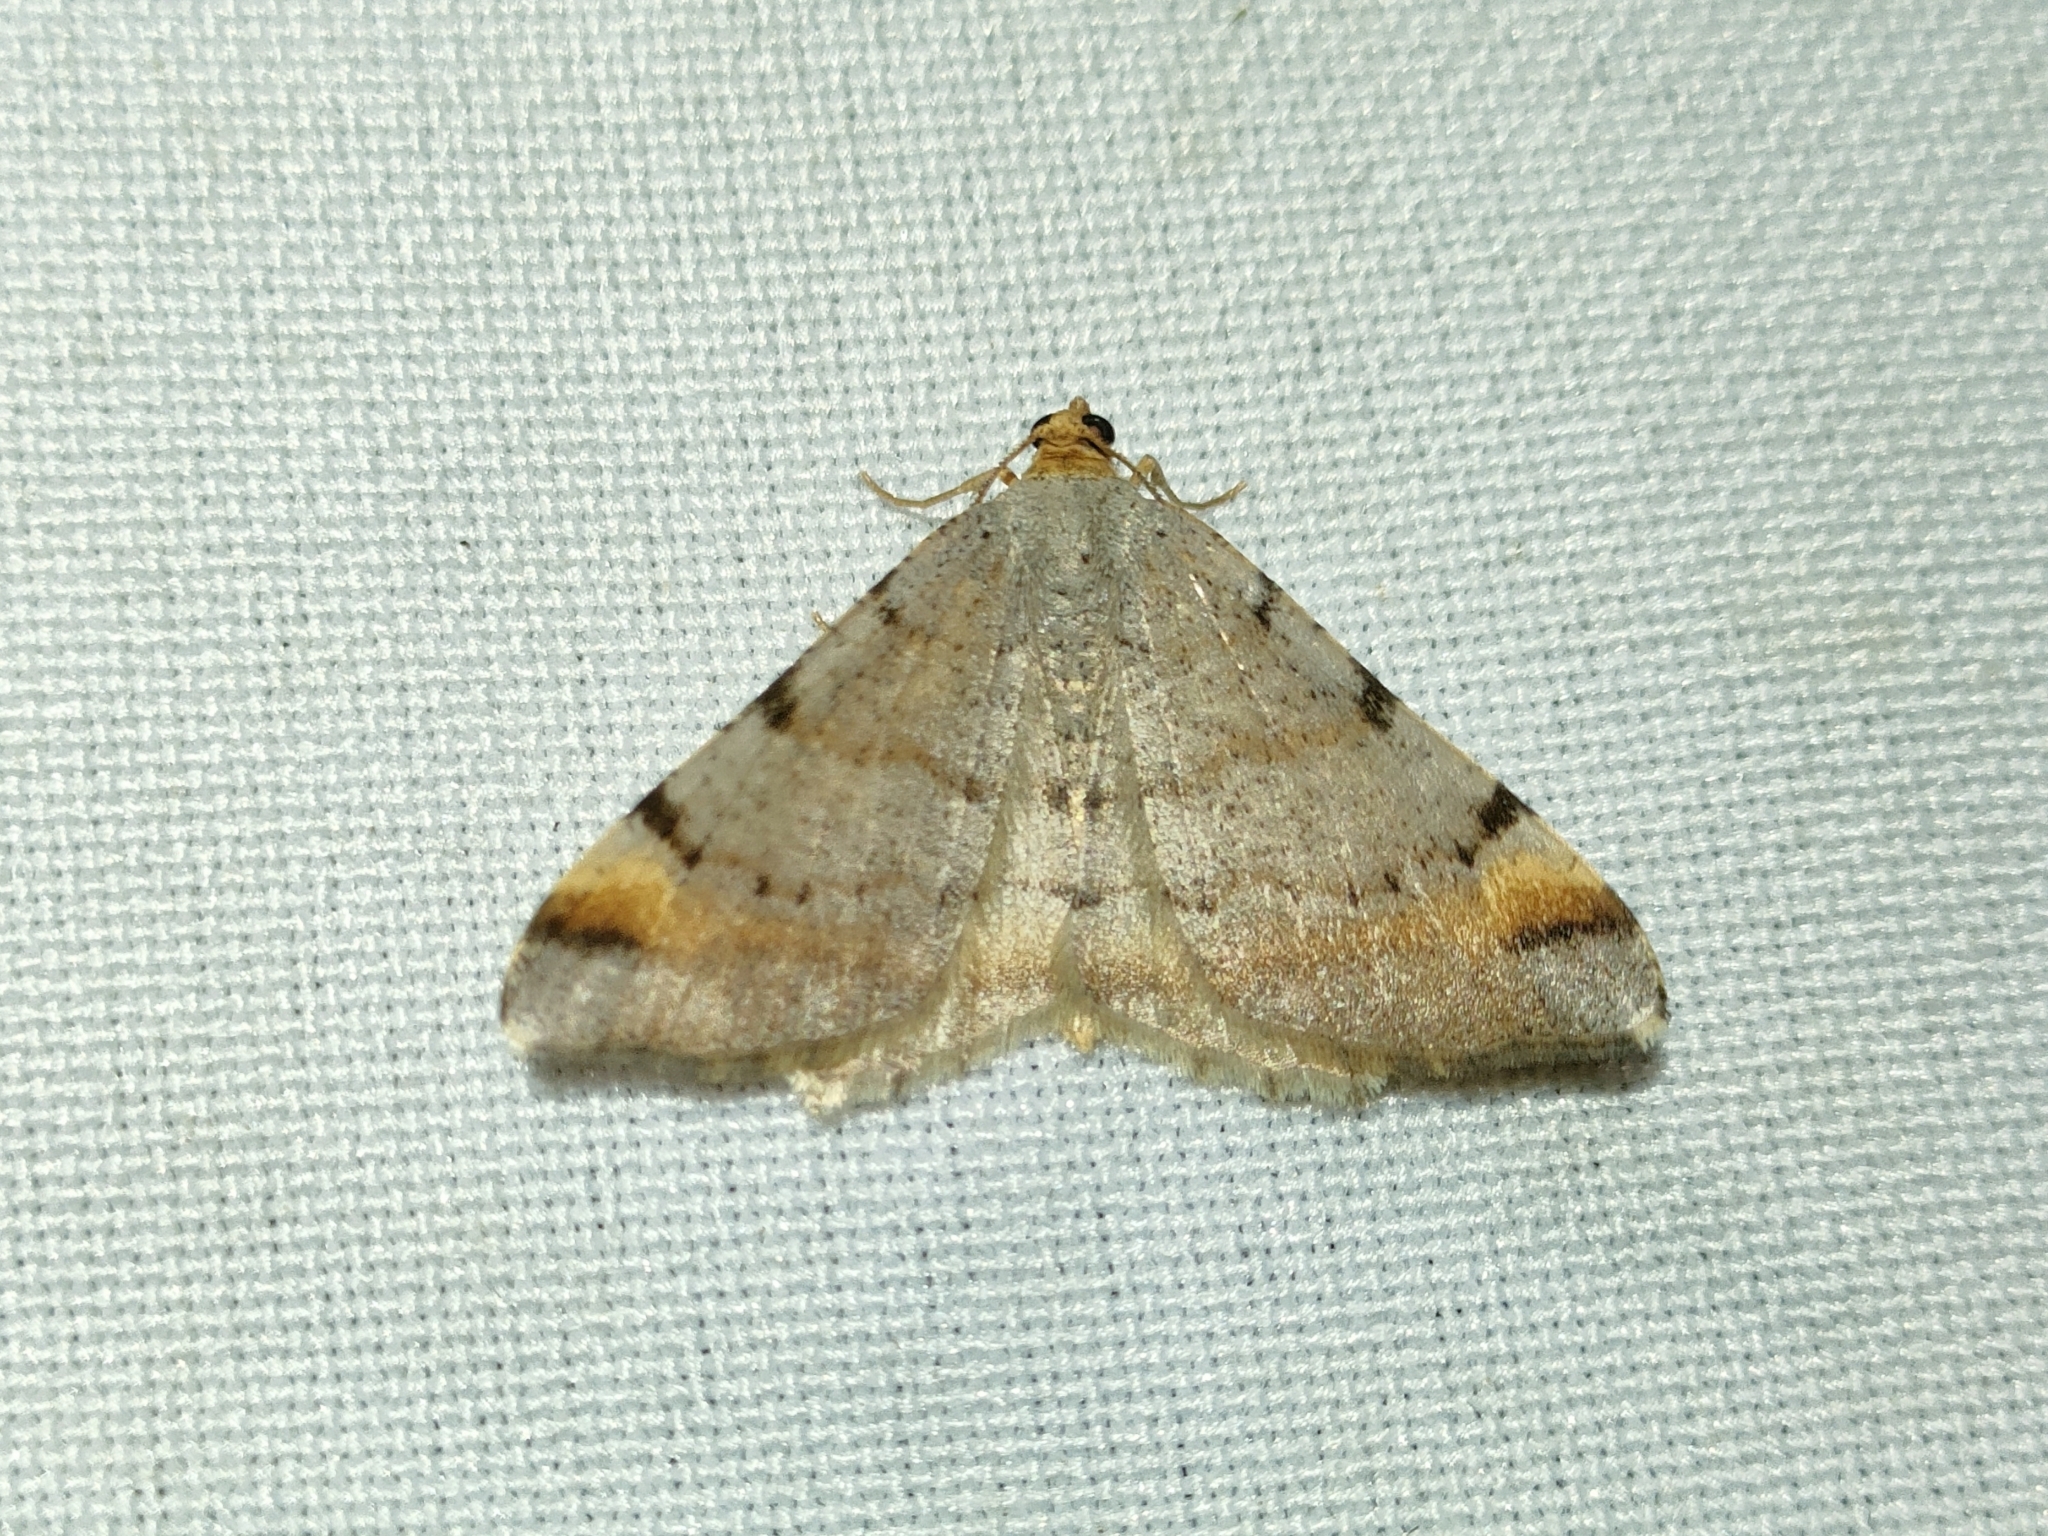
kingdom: Animalia
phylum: Arthropoda
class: Insecta
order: Lepidoptera
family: Geometridae
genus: Macaria
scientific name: Macaria liturata
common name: Tawny-barred angle
